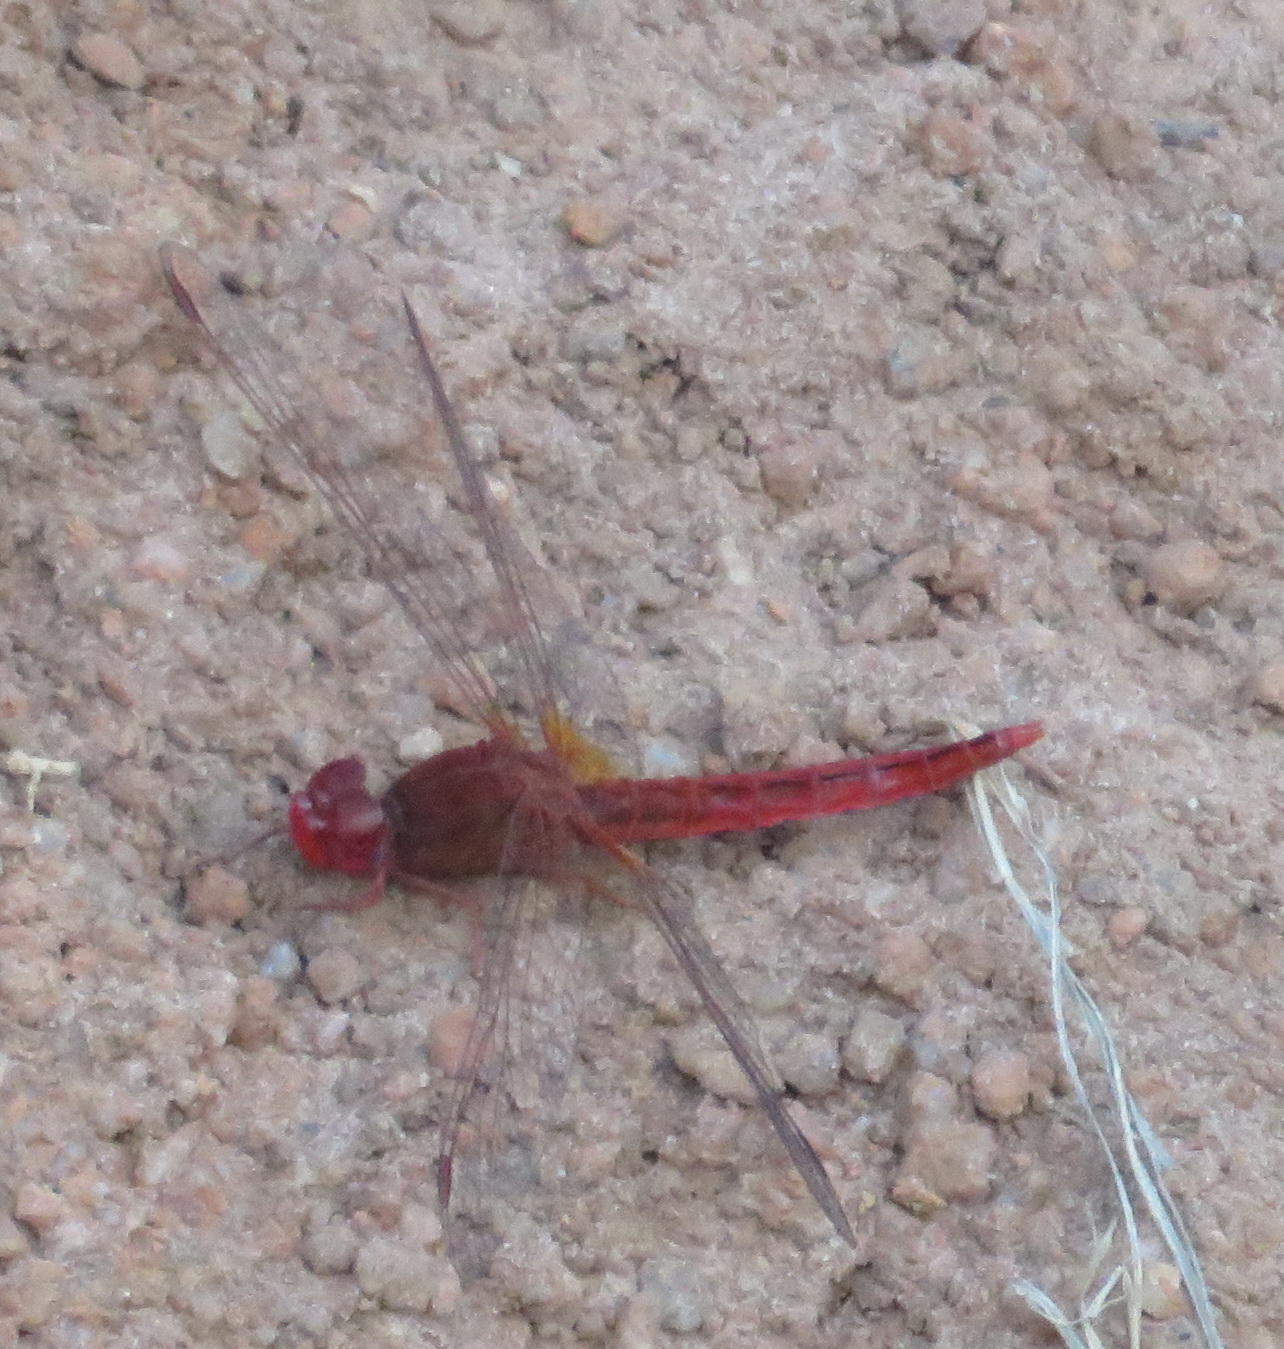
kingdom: Animalia
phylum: Arthropoda
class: Insecta
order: Odonata
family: Libellulidae
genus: Crocothemis
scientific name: Crocothemis sanguinolenta
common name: Little scarlet
